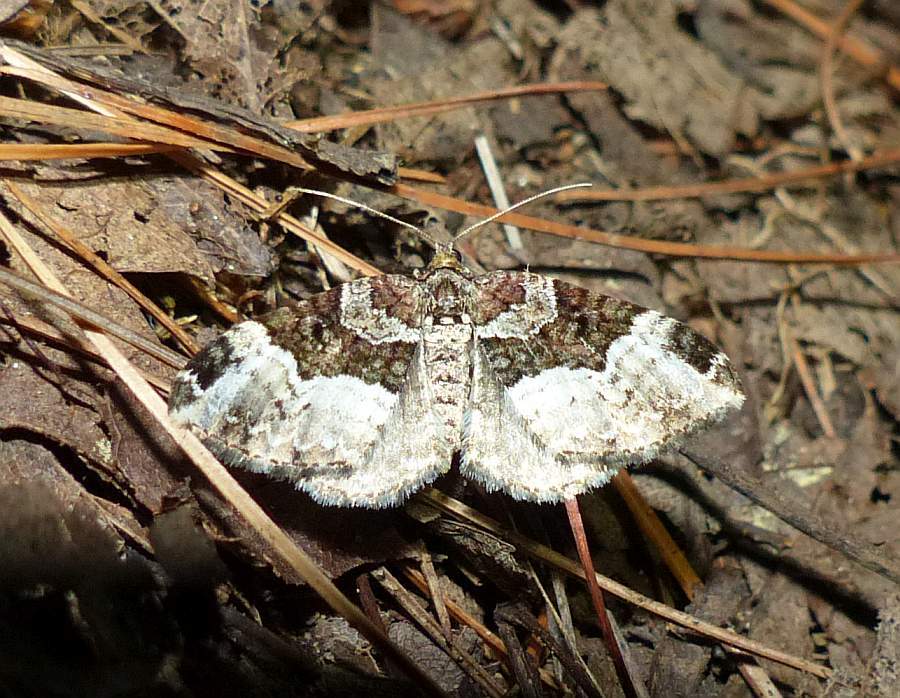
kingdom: Animalia
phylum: Arthropoda
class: Insecta
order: Lepidoptera
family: Geometridae
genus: Euphyia
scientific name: Euphyia intermediata
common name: Sharp-angled carpet
